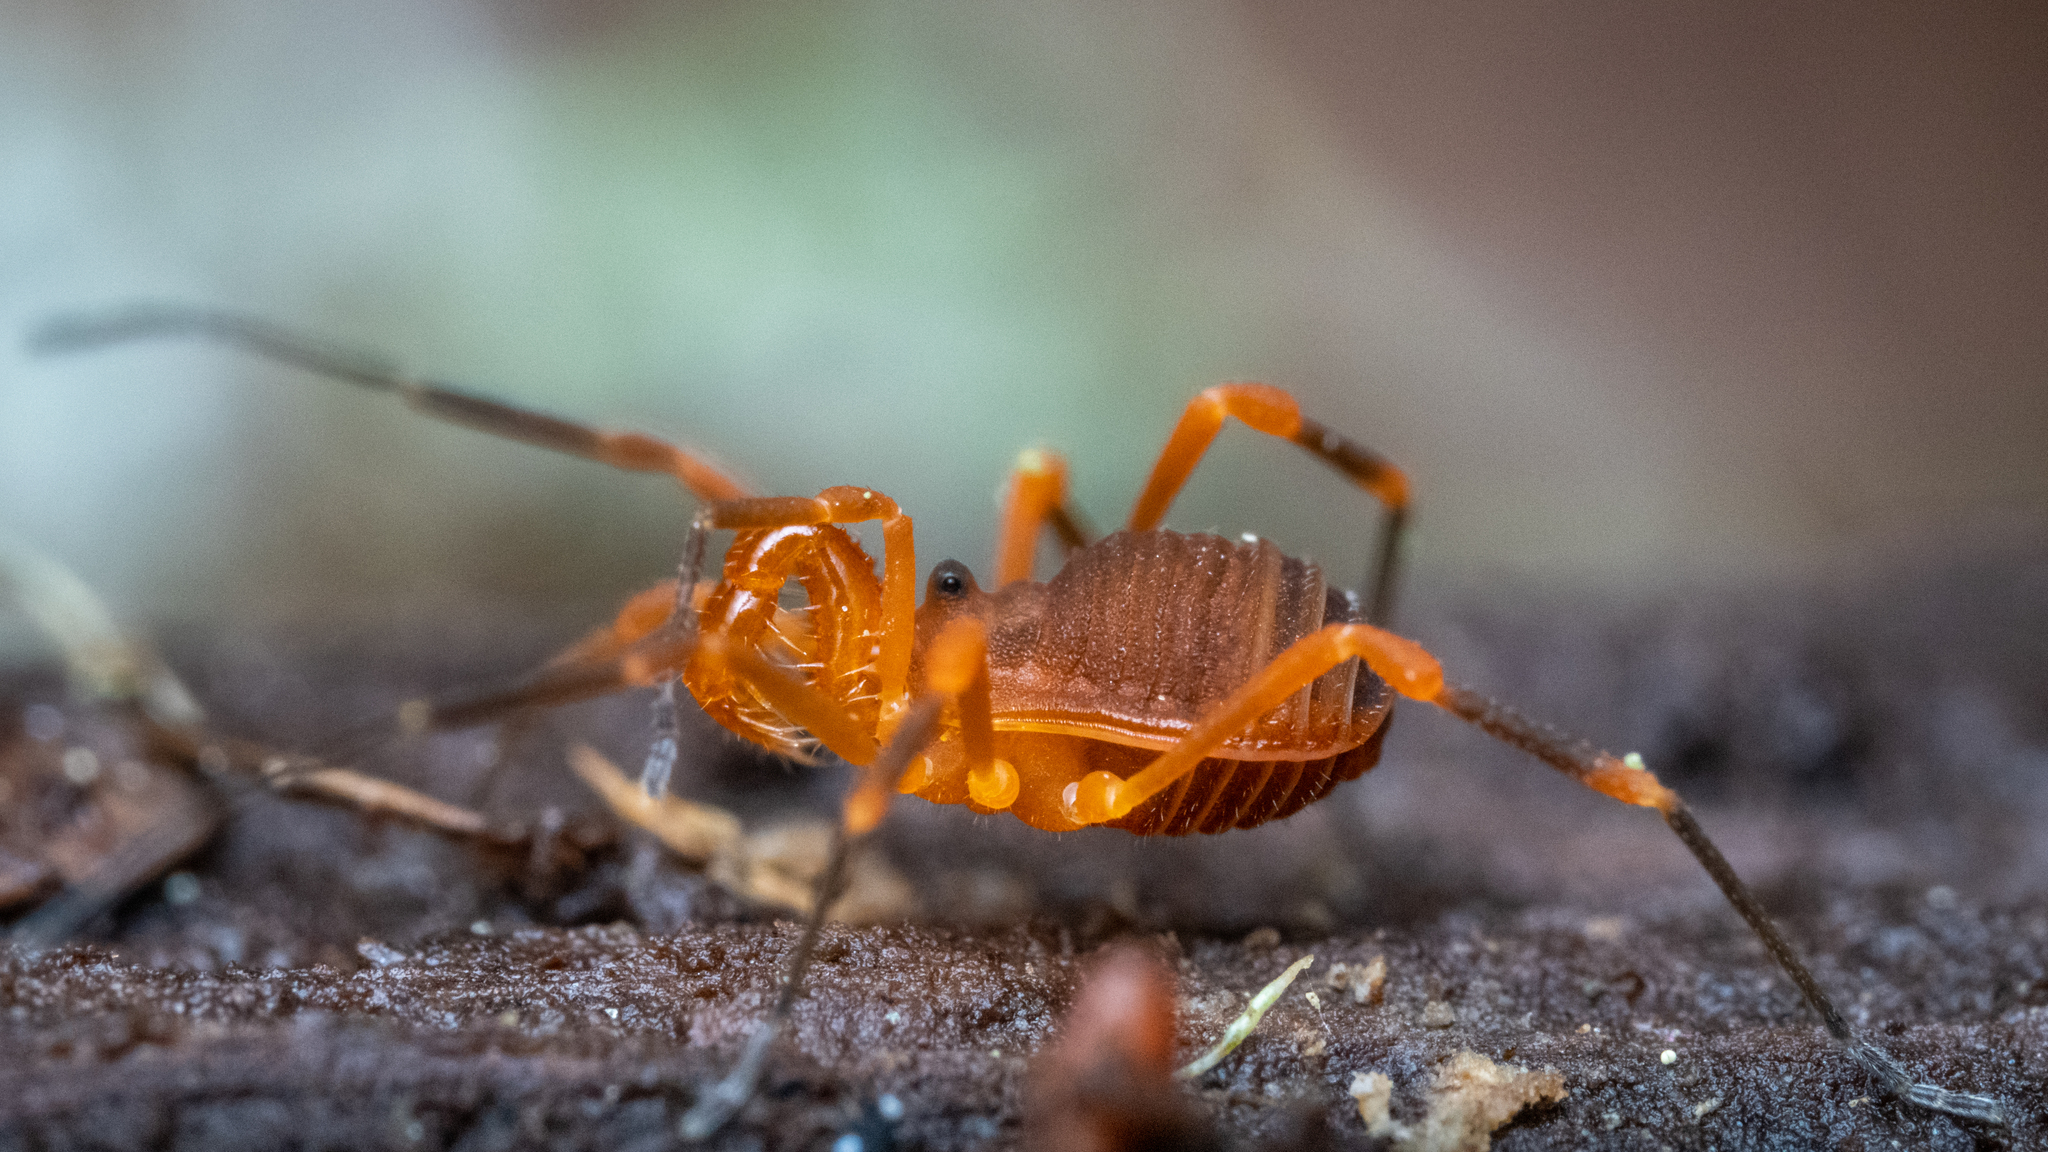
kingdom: Animalia
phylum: Arthropoda
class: Arachnida
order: Opiliones
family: Paranonychidae
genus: Sclerobunus
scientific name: Sclerobunus idahoensis
